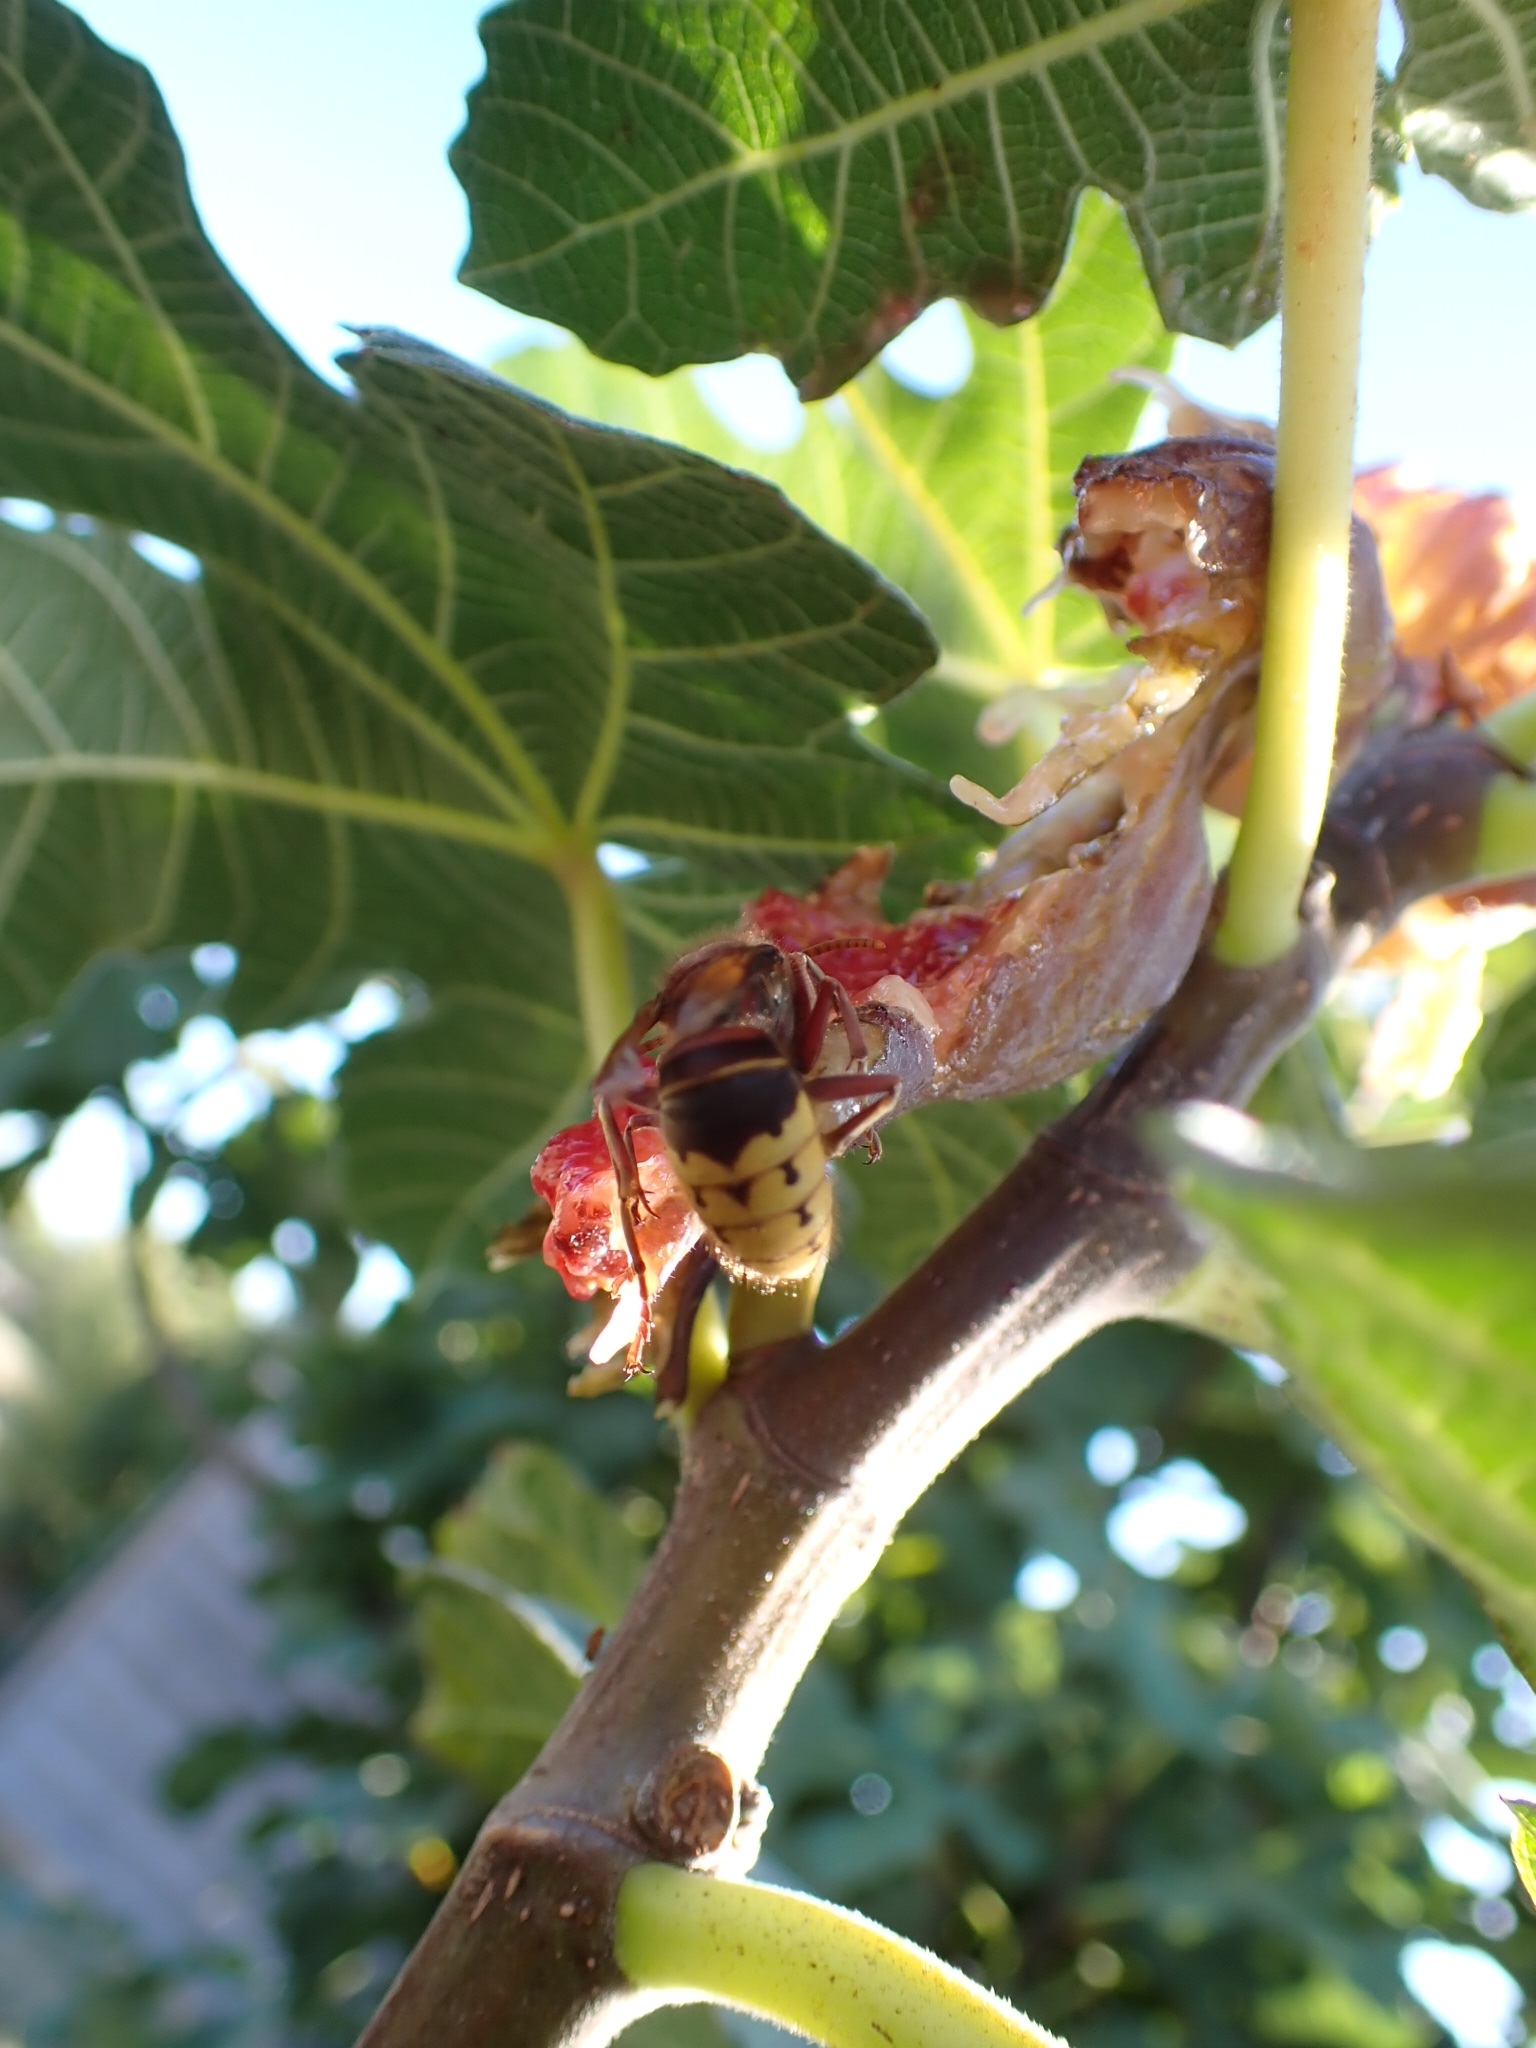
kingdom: Animalia
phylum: Arthropoda
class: Insecta
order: Hymenoptera
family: Vespidae
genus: Vespa
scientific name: Vespa crabro
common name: Hornet
